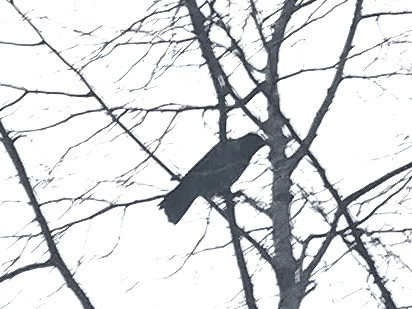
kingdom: Animalia
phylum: Chordata
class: Aves
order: Passeriformes
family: Corvidae
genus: Corvus
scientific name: Corvus cornix
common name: Hooded crow
